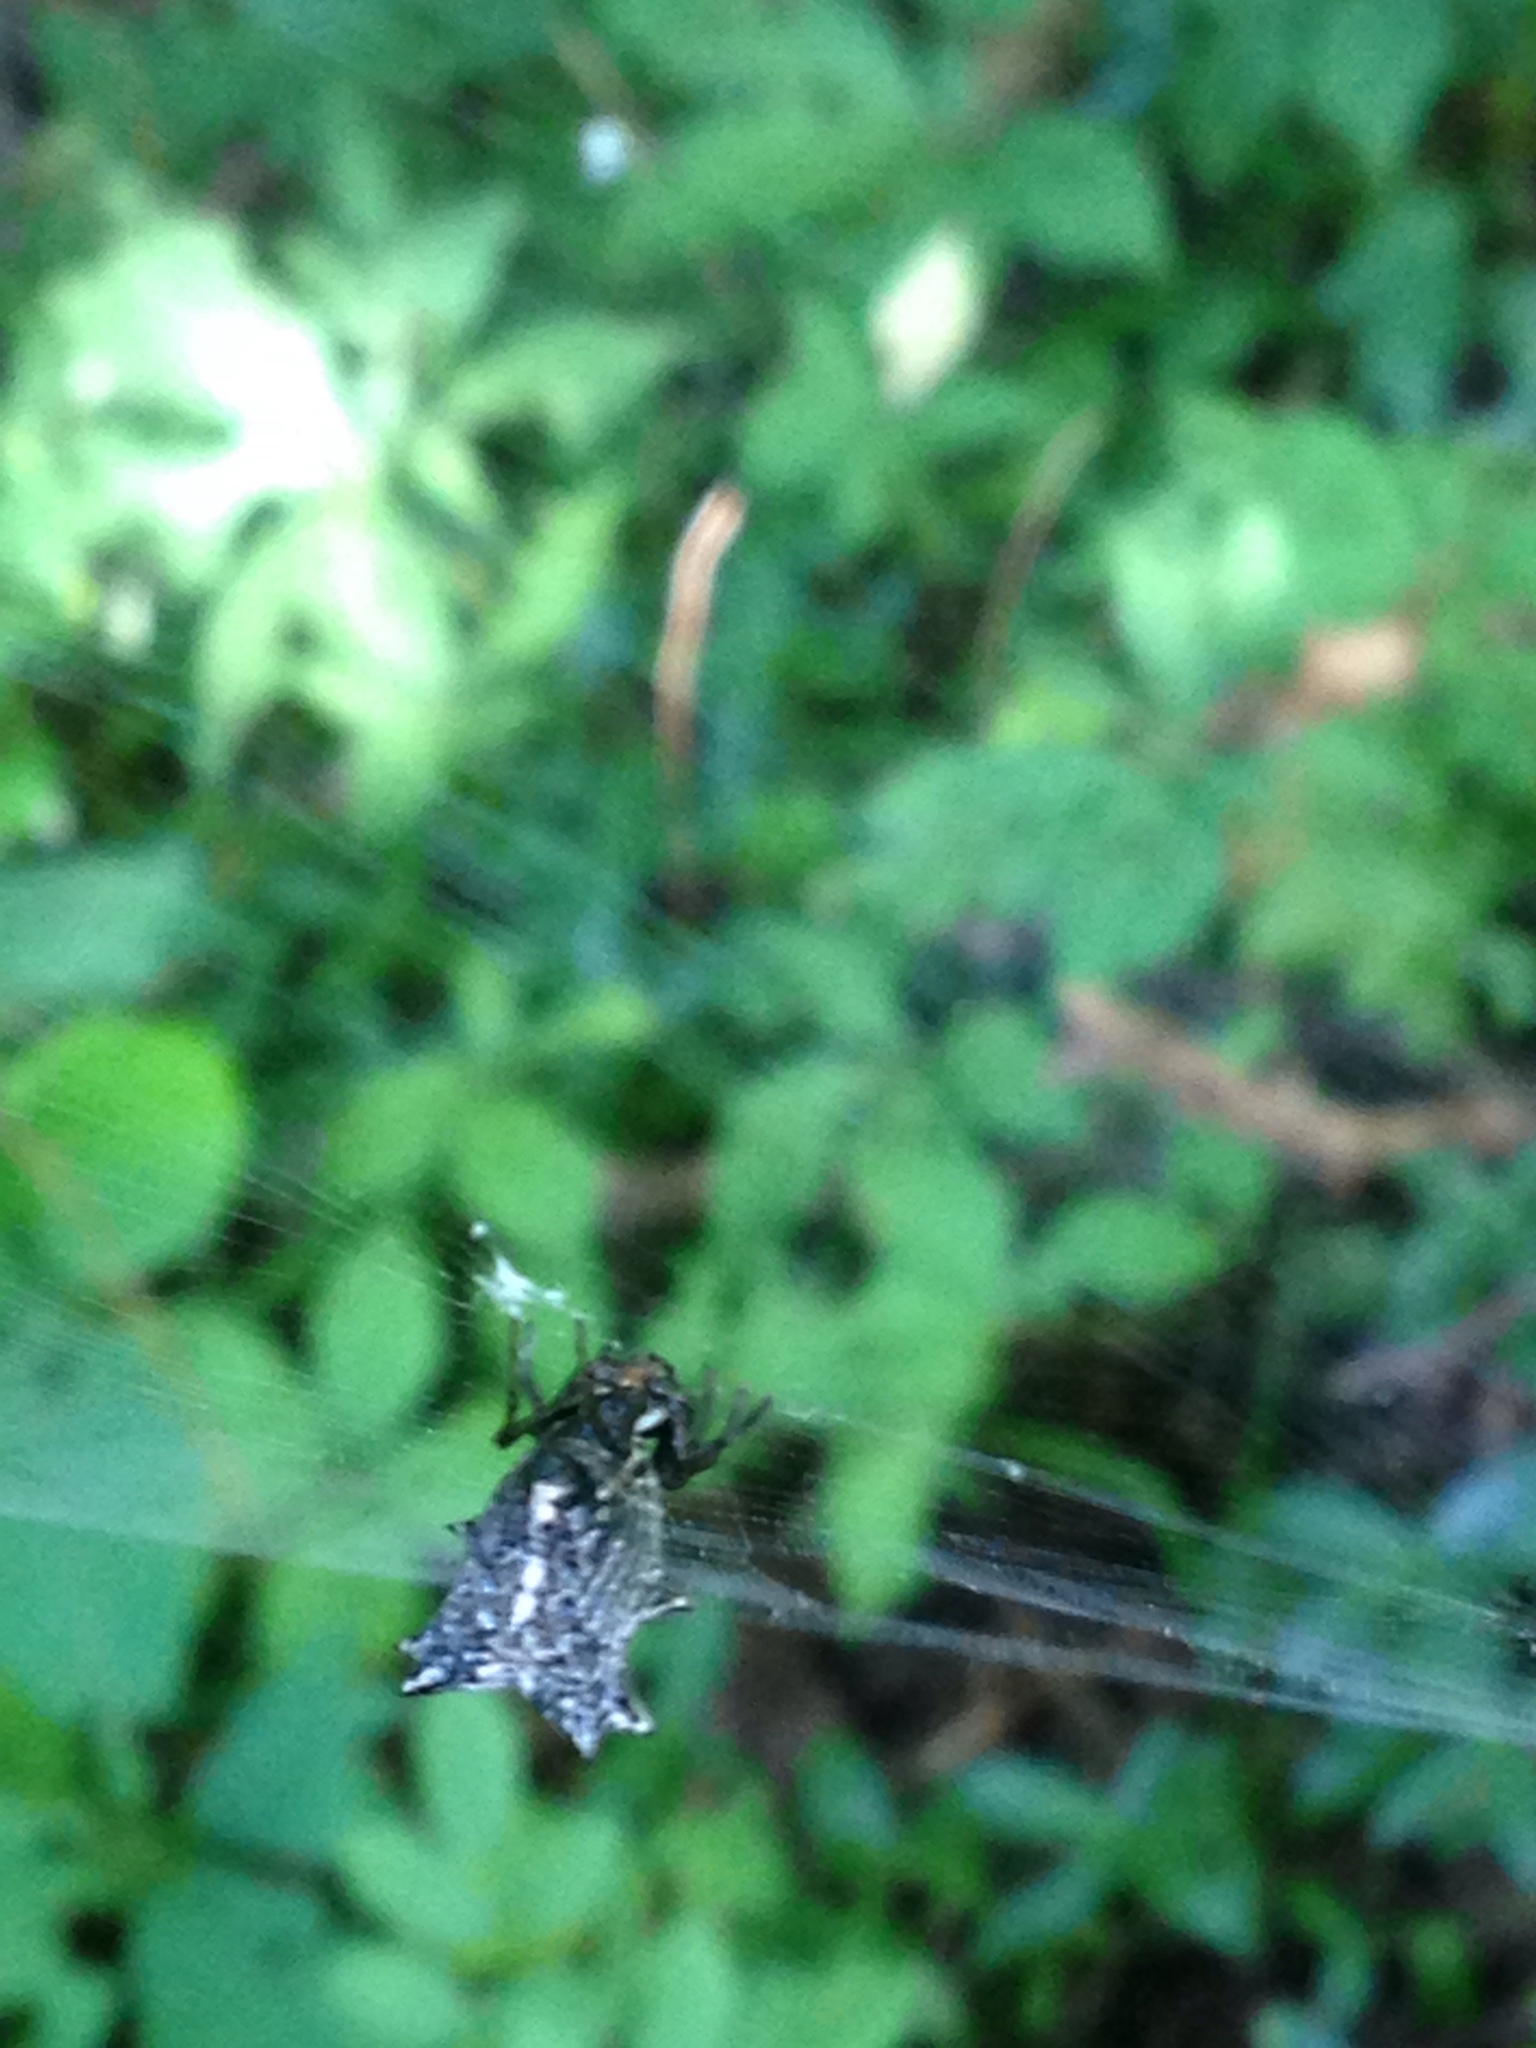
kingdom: Animalia
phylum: Arthropoda
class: Arachnida
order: Araneae
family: Araneidae
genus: Micrathena
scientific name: Micrathena gracilis
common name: Orb weavers
